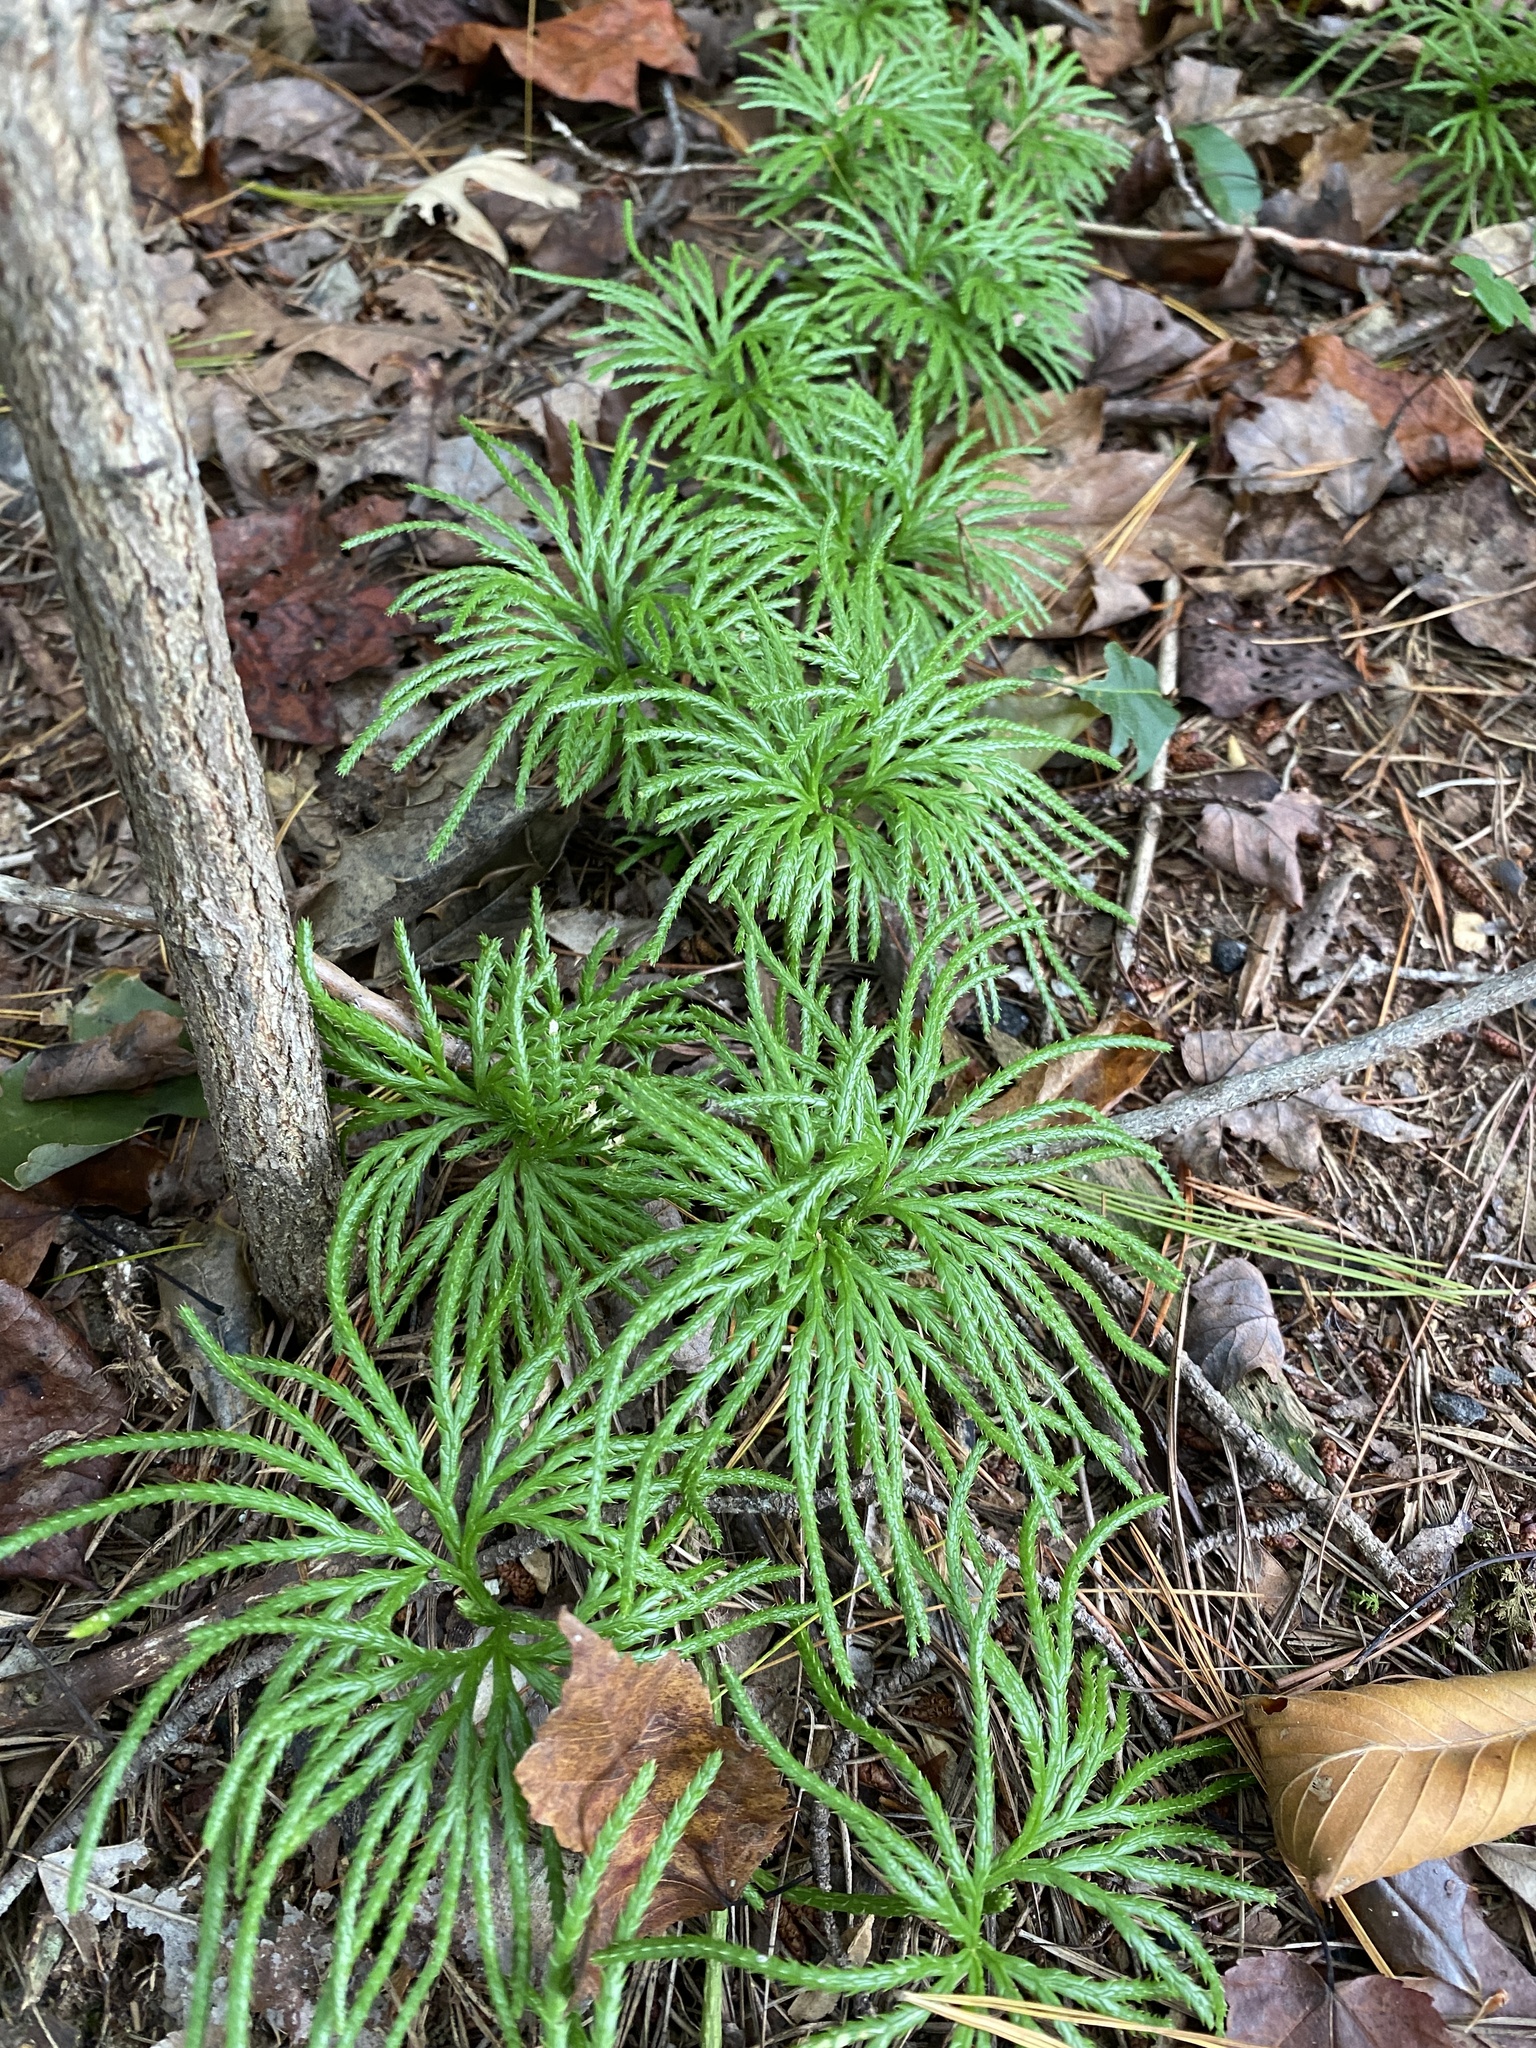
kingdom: Plantae
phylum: Tracheophyta
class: Lycopodiopsida
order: Lycopodiales
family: Lycopodiaceae
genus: Diphasiastrum
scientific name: Diphasiastrum digitatum
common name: Southern running-pine
